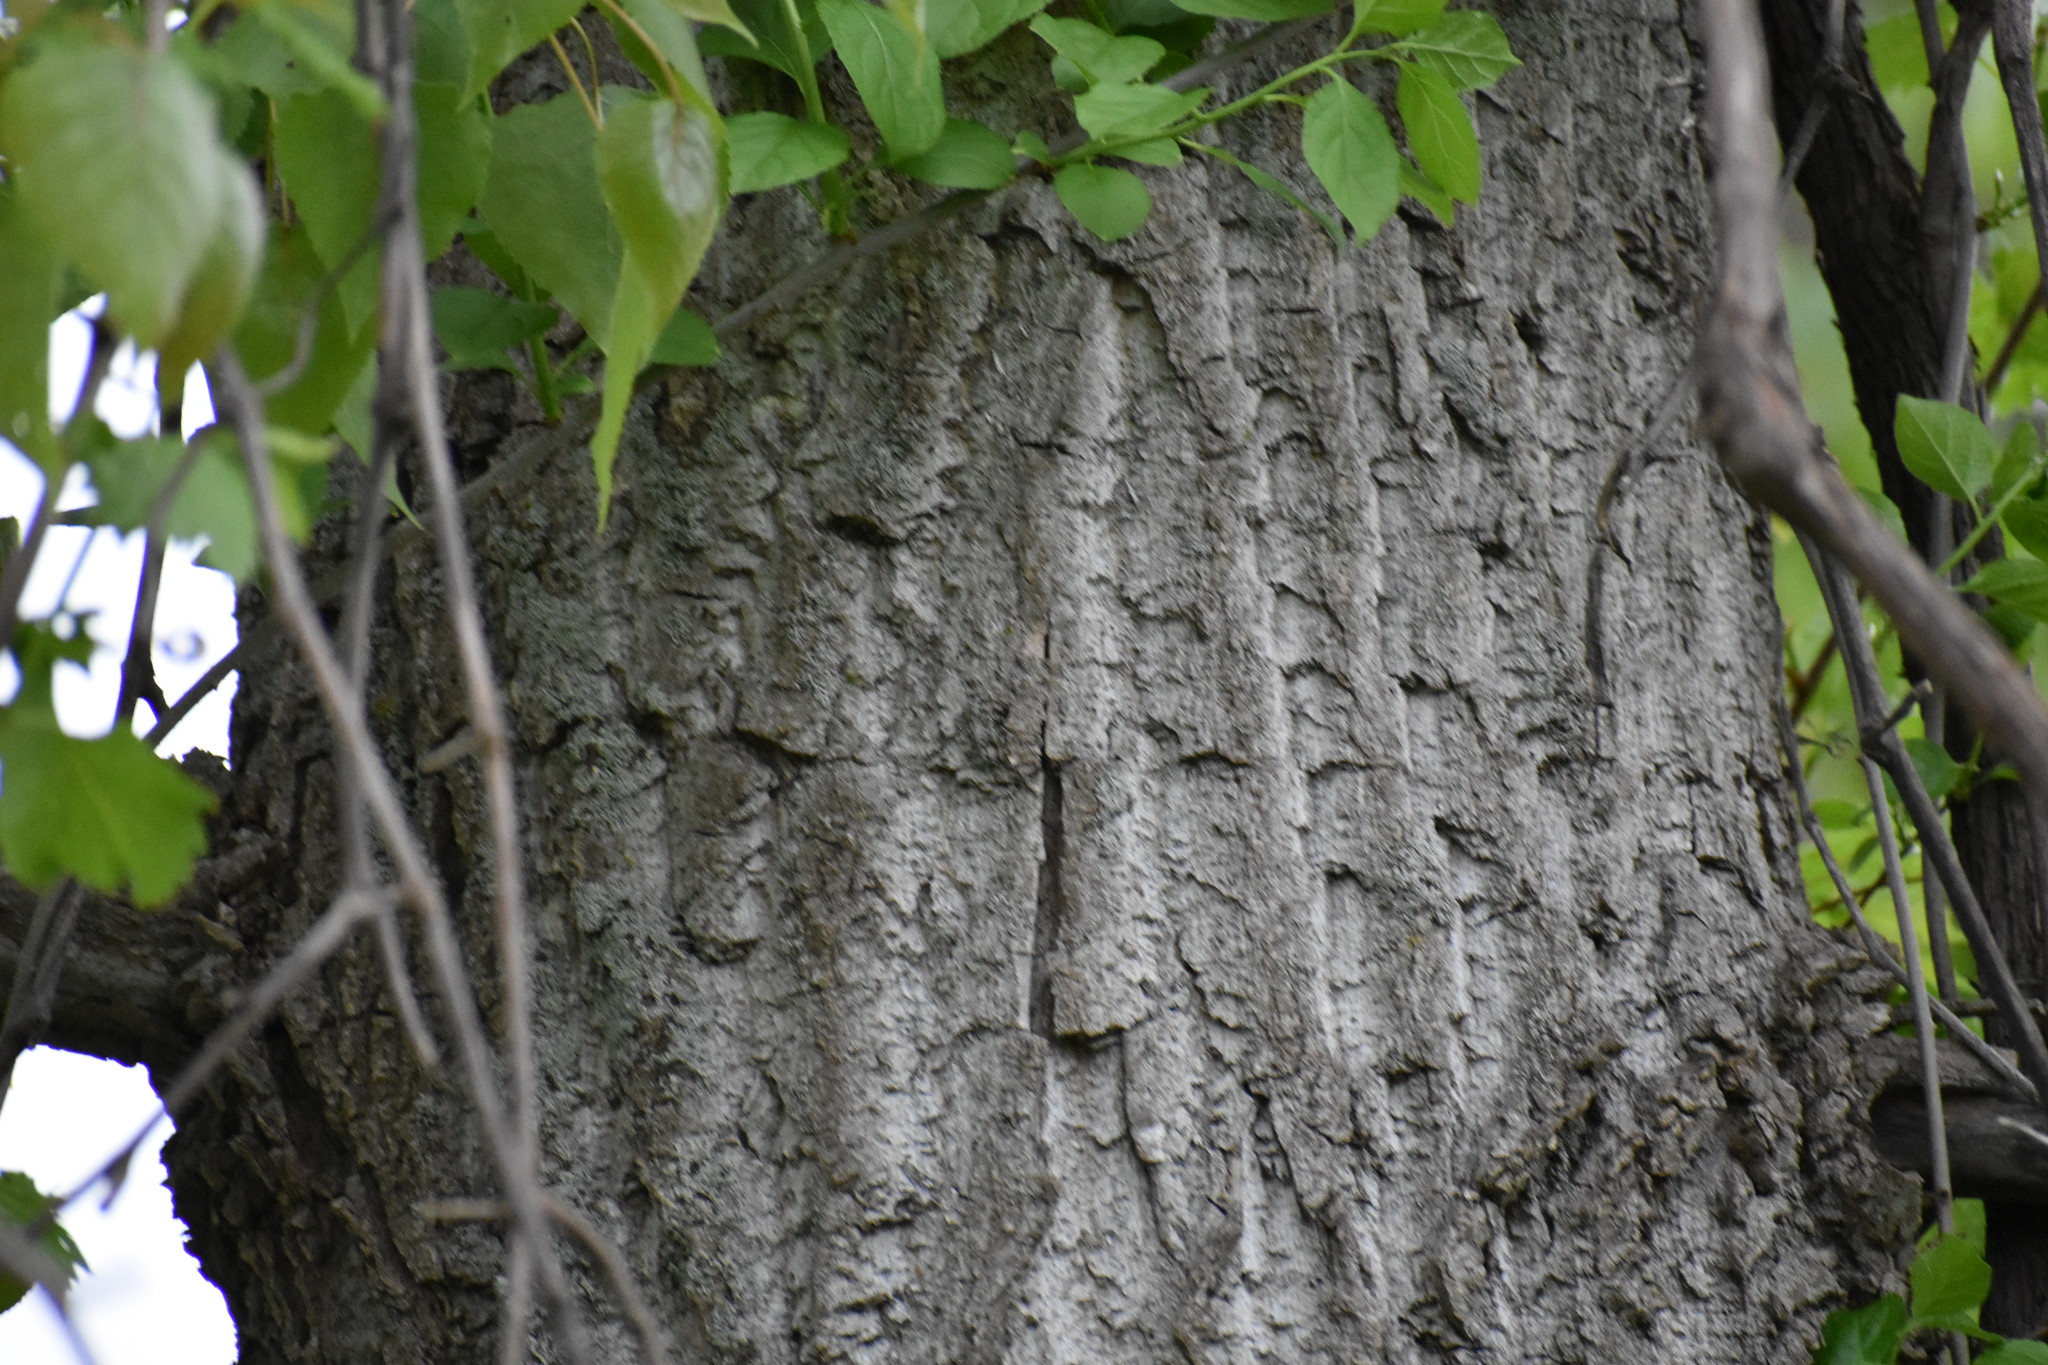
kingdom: Plantae
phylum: Tracheophyta
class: Magnoliopsida
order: Malpighiales
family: Salicaceae
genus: Populus
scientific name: Populus deltoides
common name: Eastern cottonwood
